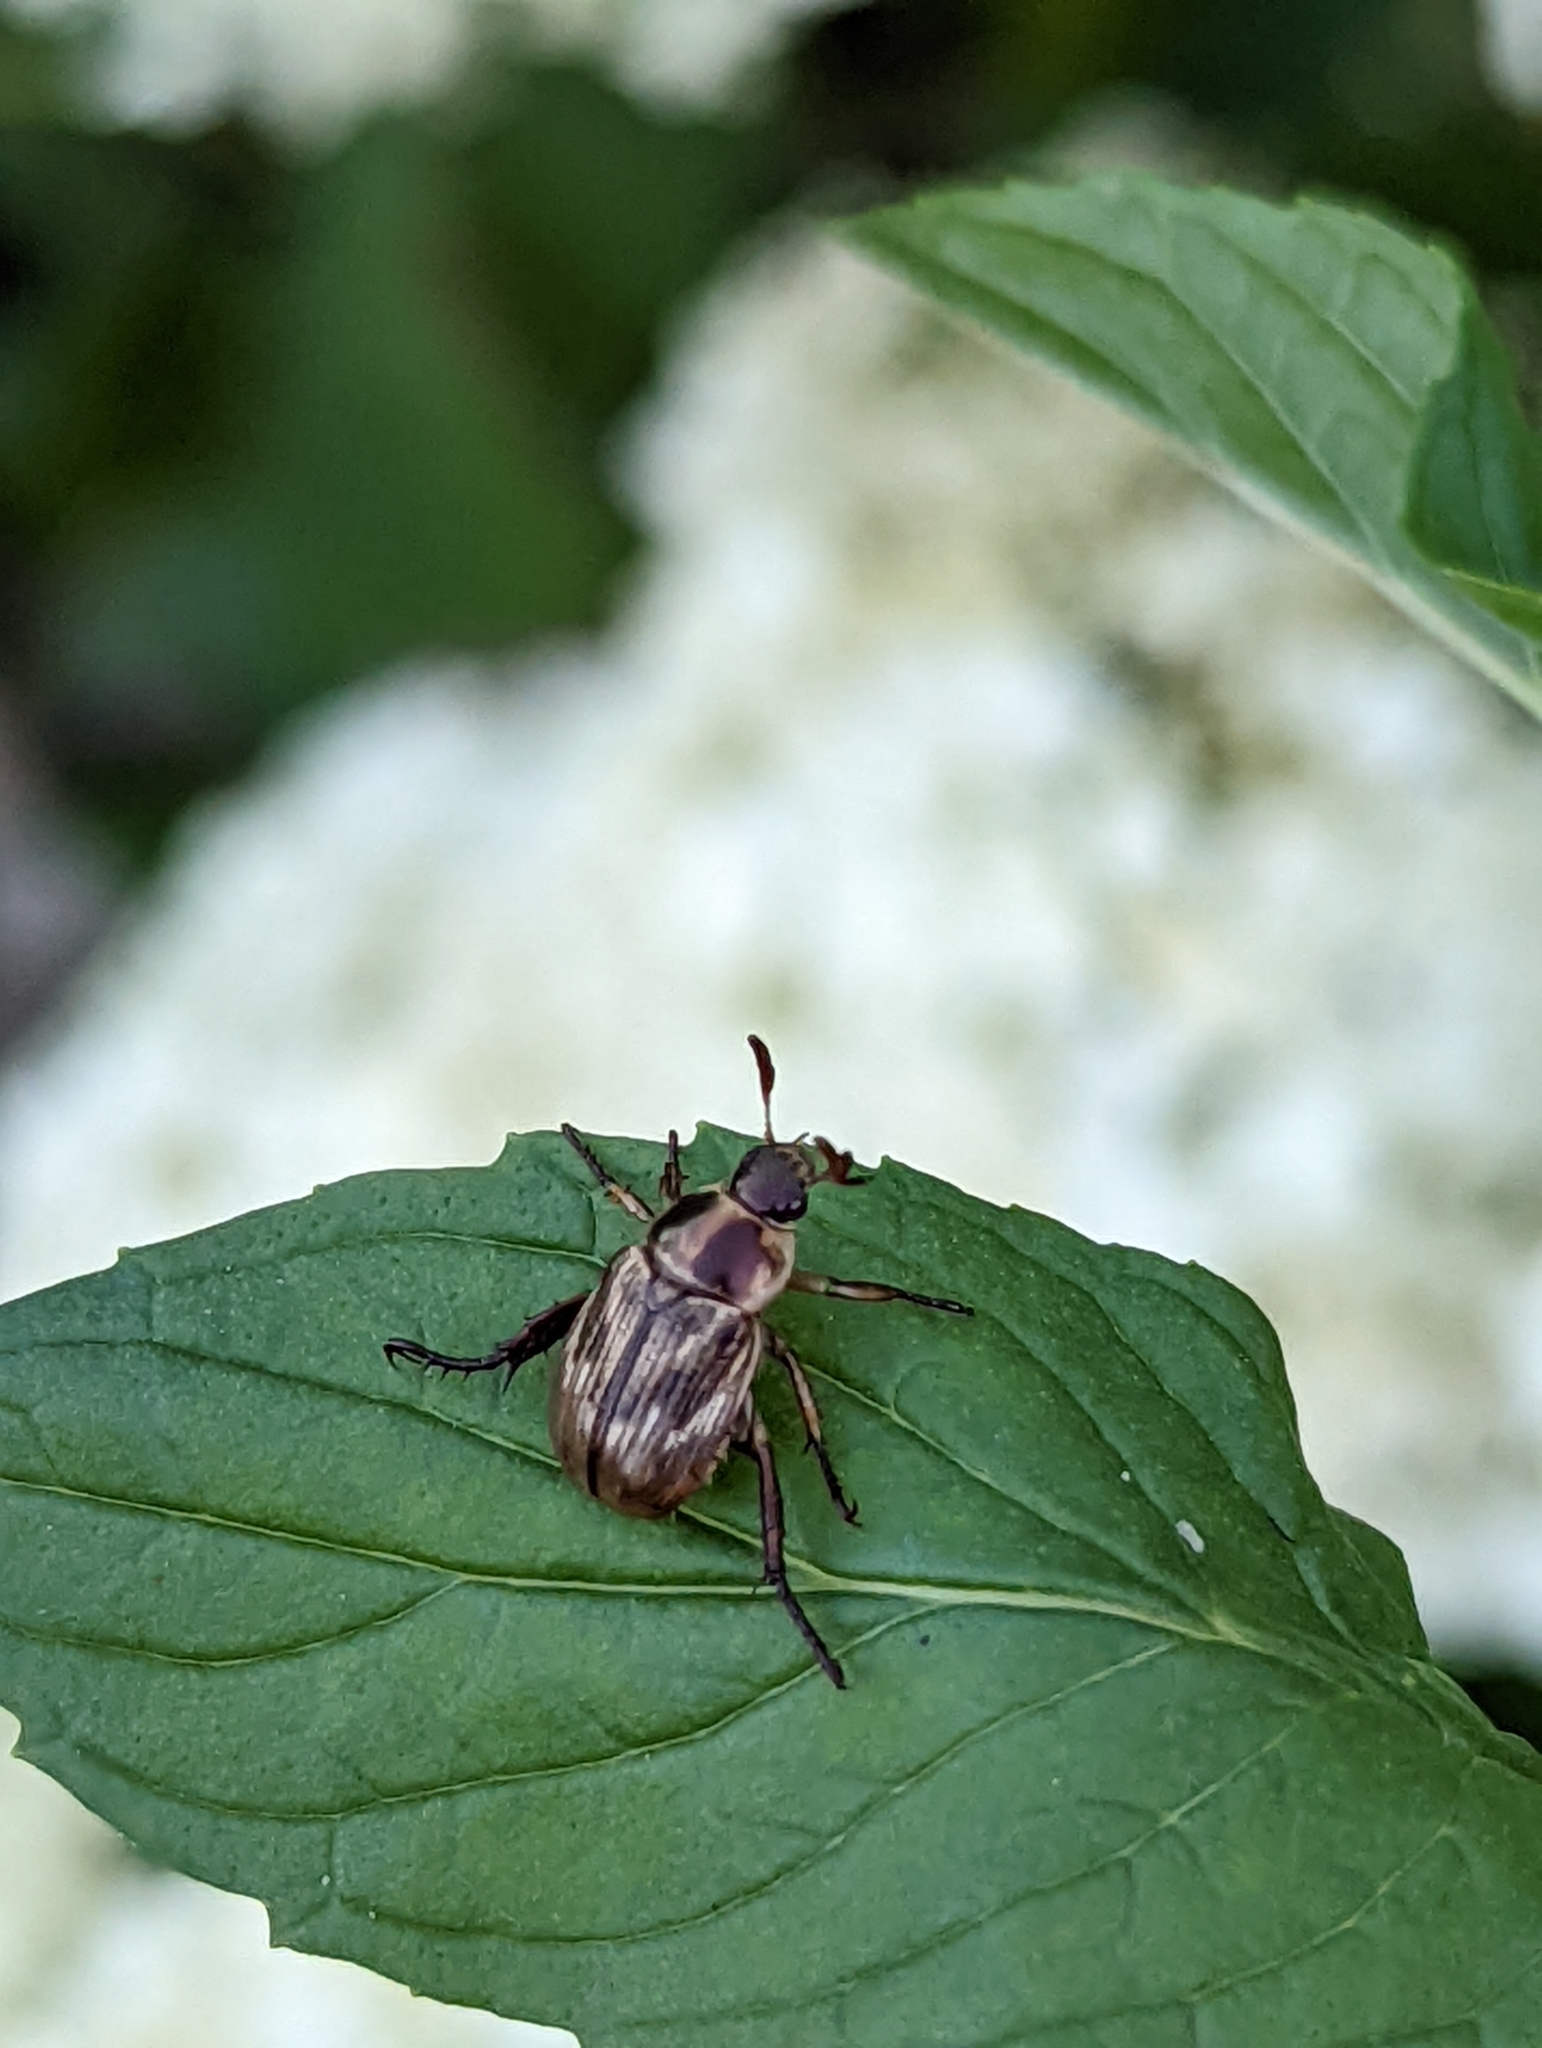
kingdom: Animalia
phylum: Arthropoda
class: Insecta
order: Coleoptera
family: Scarabaeidae
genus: Exomala
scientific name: Exomala orientalis
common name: Oriental beetle
